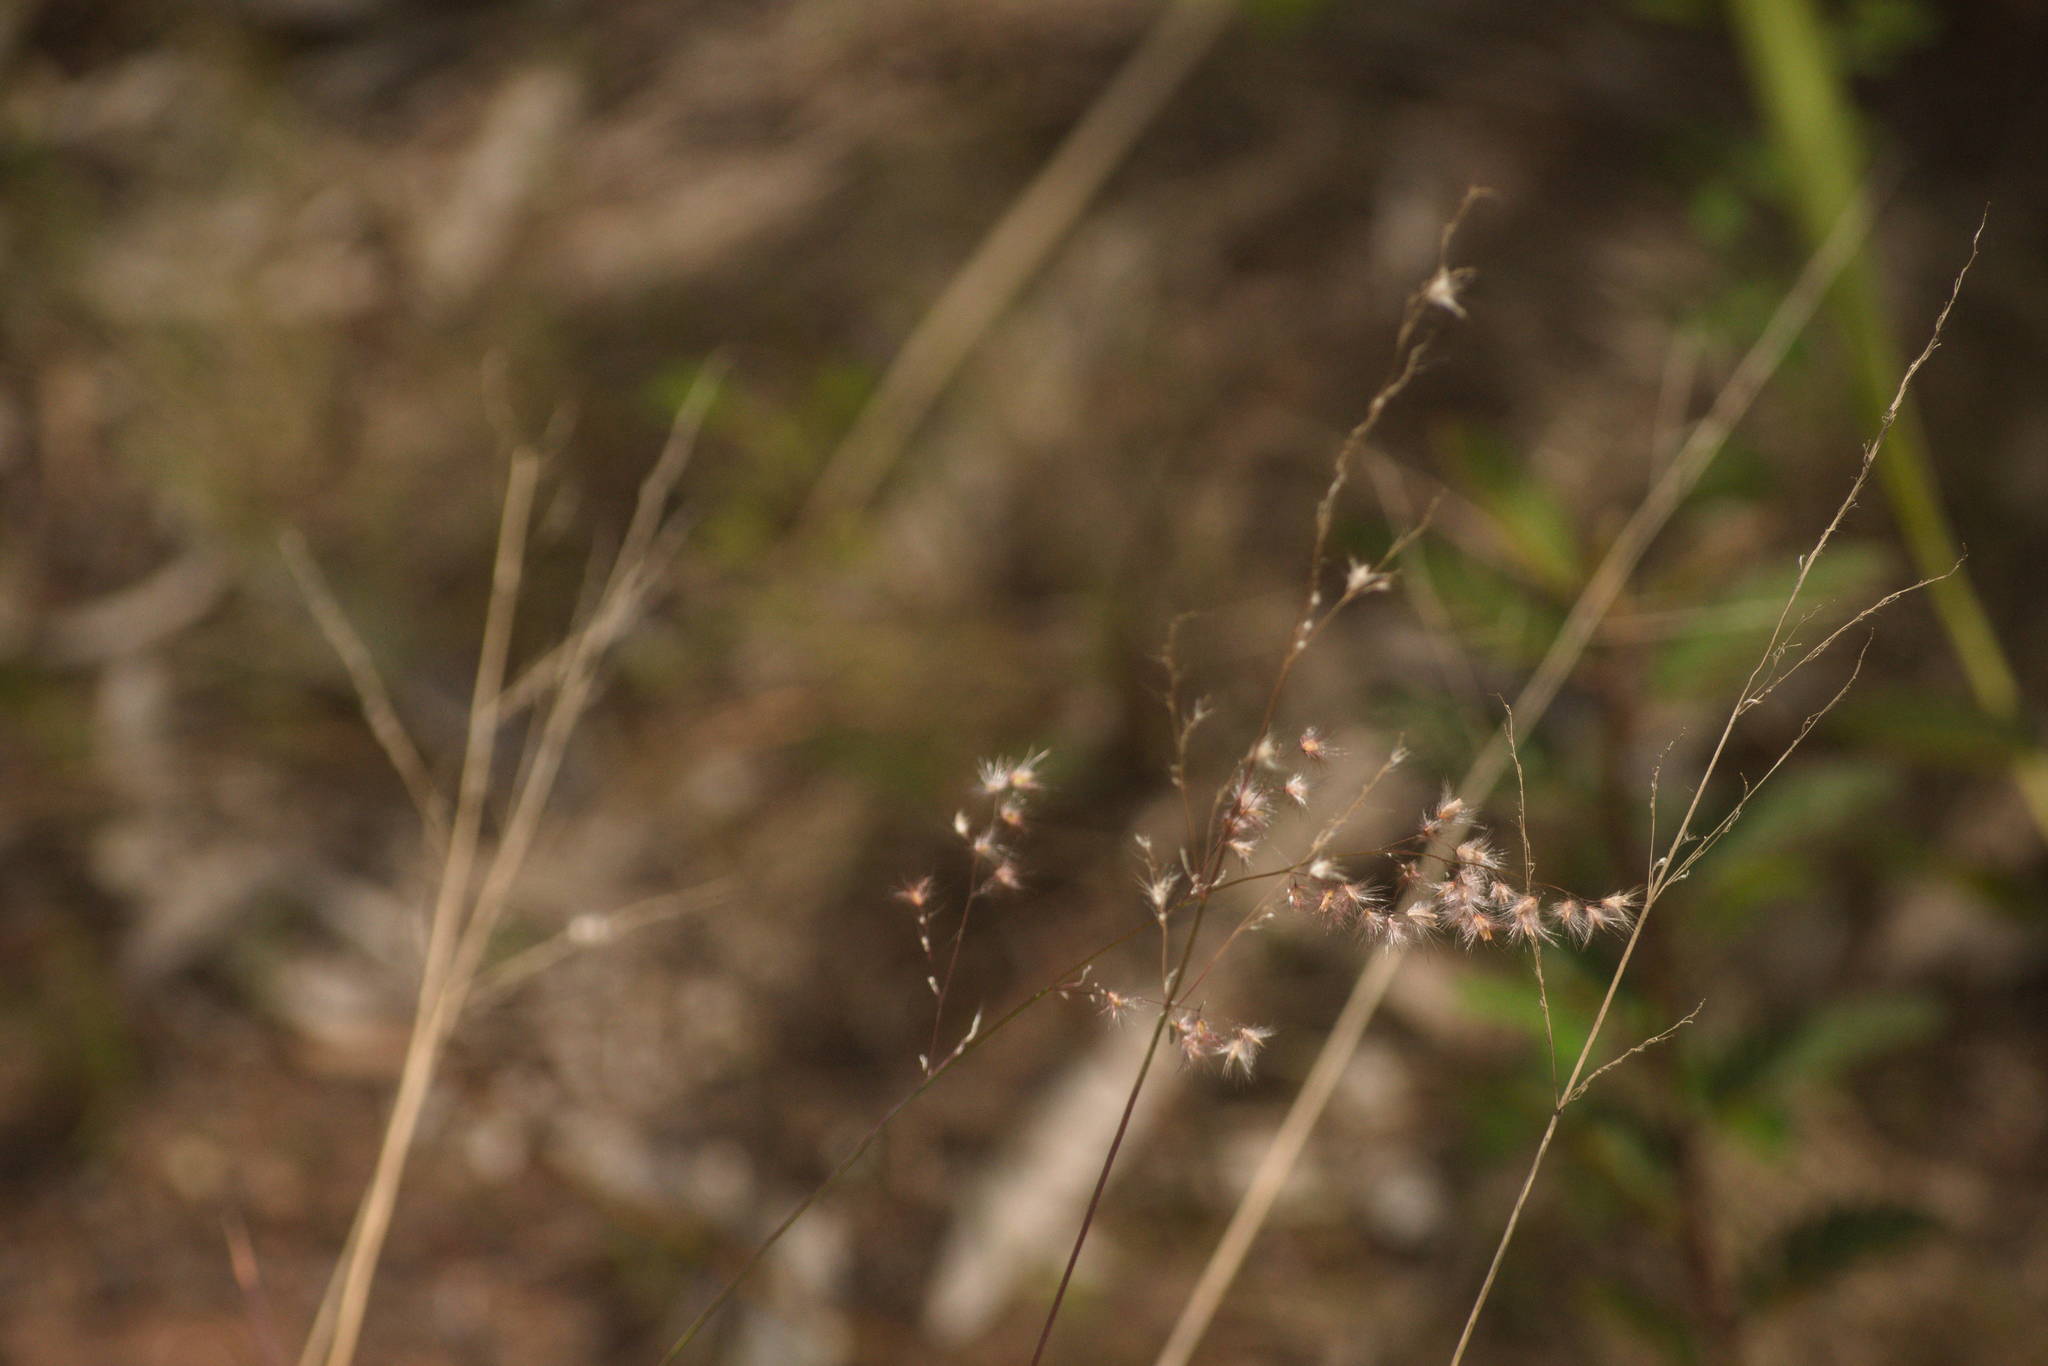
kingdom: Plantae
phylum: Tracheophyta
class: Liliopsida
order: Poales
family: Poaceae
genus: Melinis
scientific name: Melinis repens
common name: Rose natal grass
